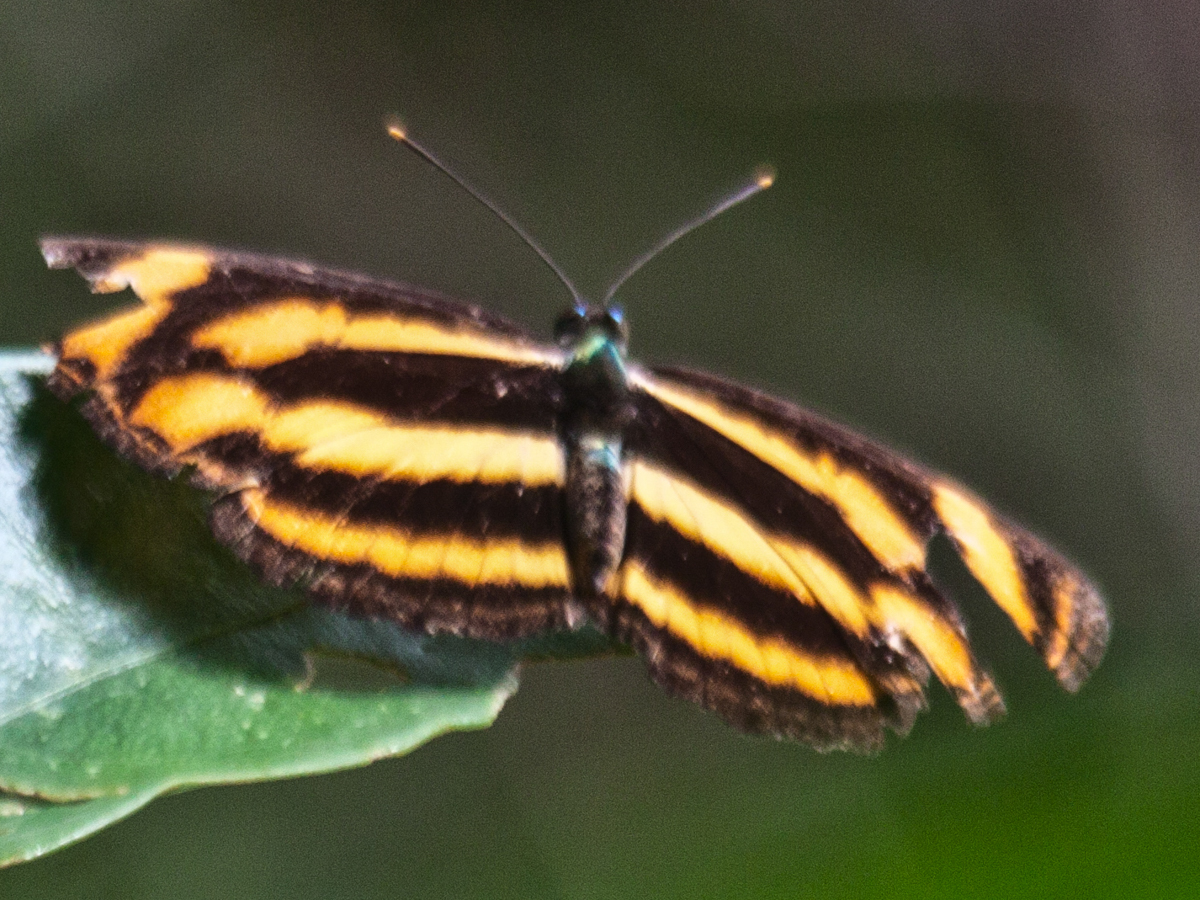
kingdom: Animalia
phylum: Arthropoda
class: Insecta
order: Lepidoptera
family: Nymphalidae
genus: Lasippa
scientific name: Lasippa
